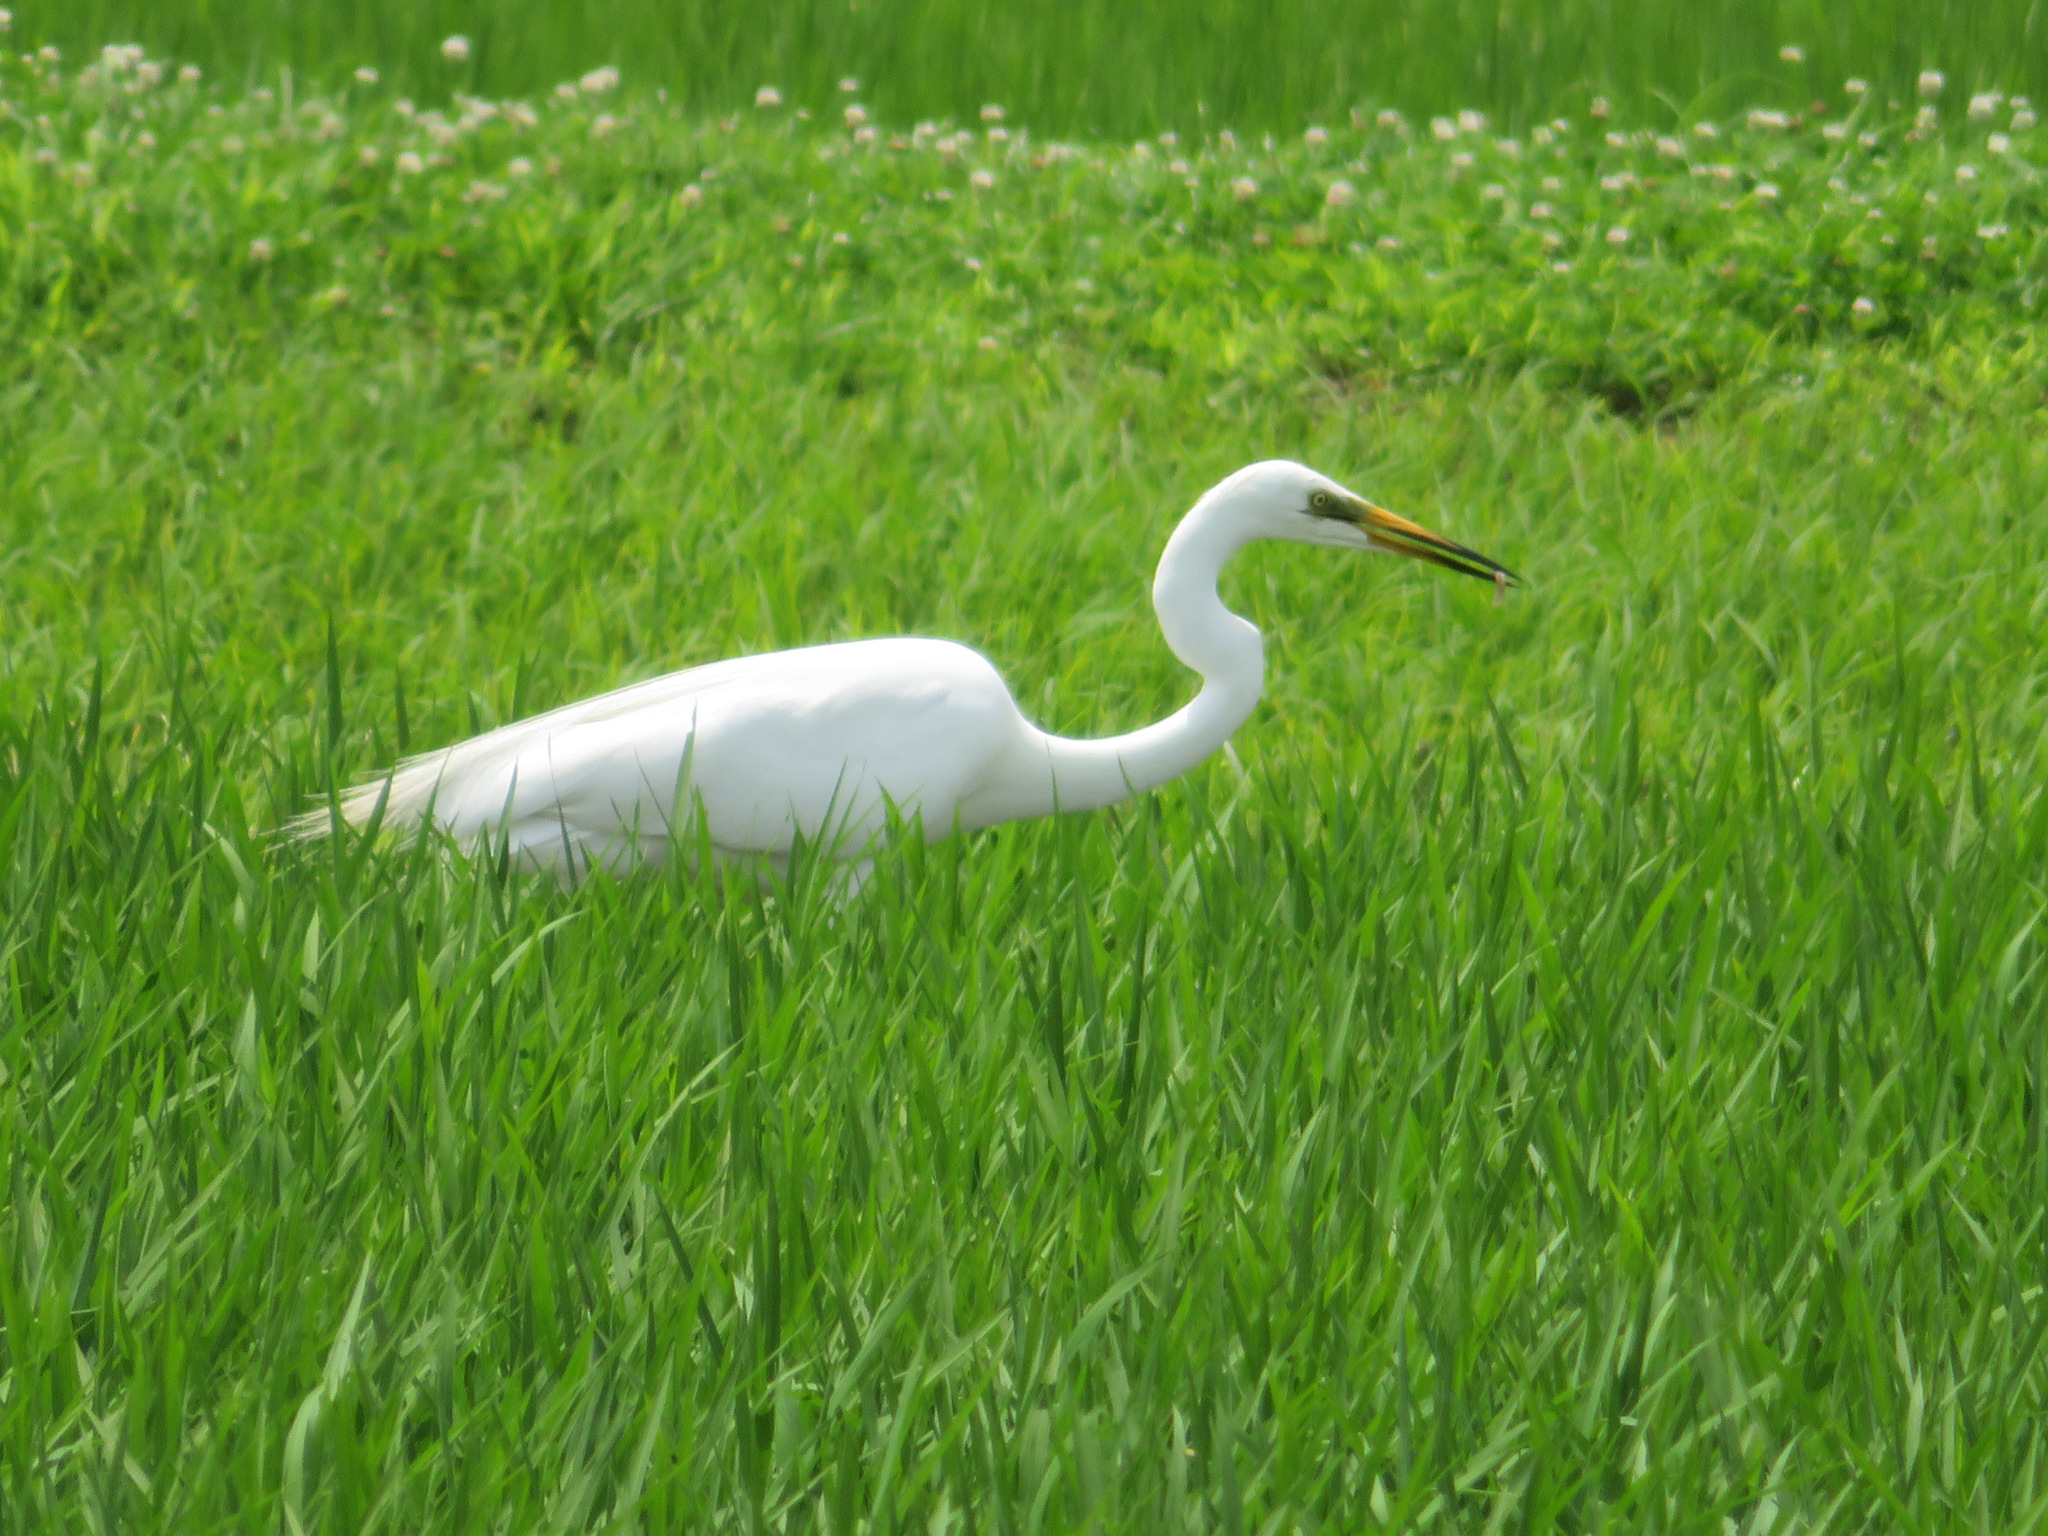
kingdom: Animalia
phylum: Chordata
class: Aves
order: Pelecaniformes
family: Ardeidae
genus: Ardea
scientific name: Ardea alba
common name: Great egret
